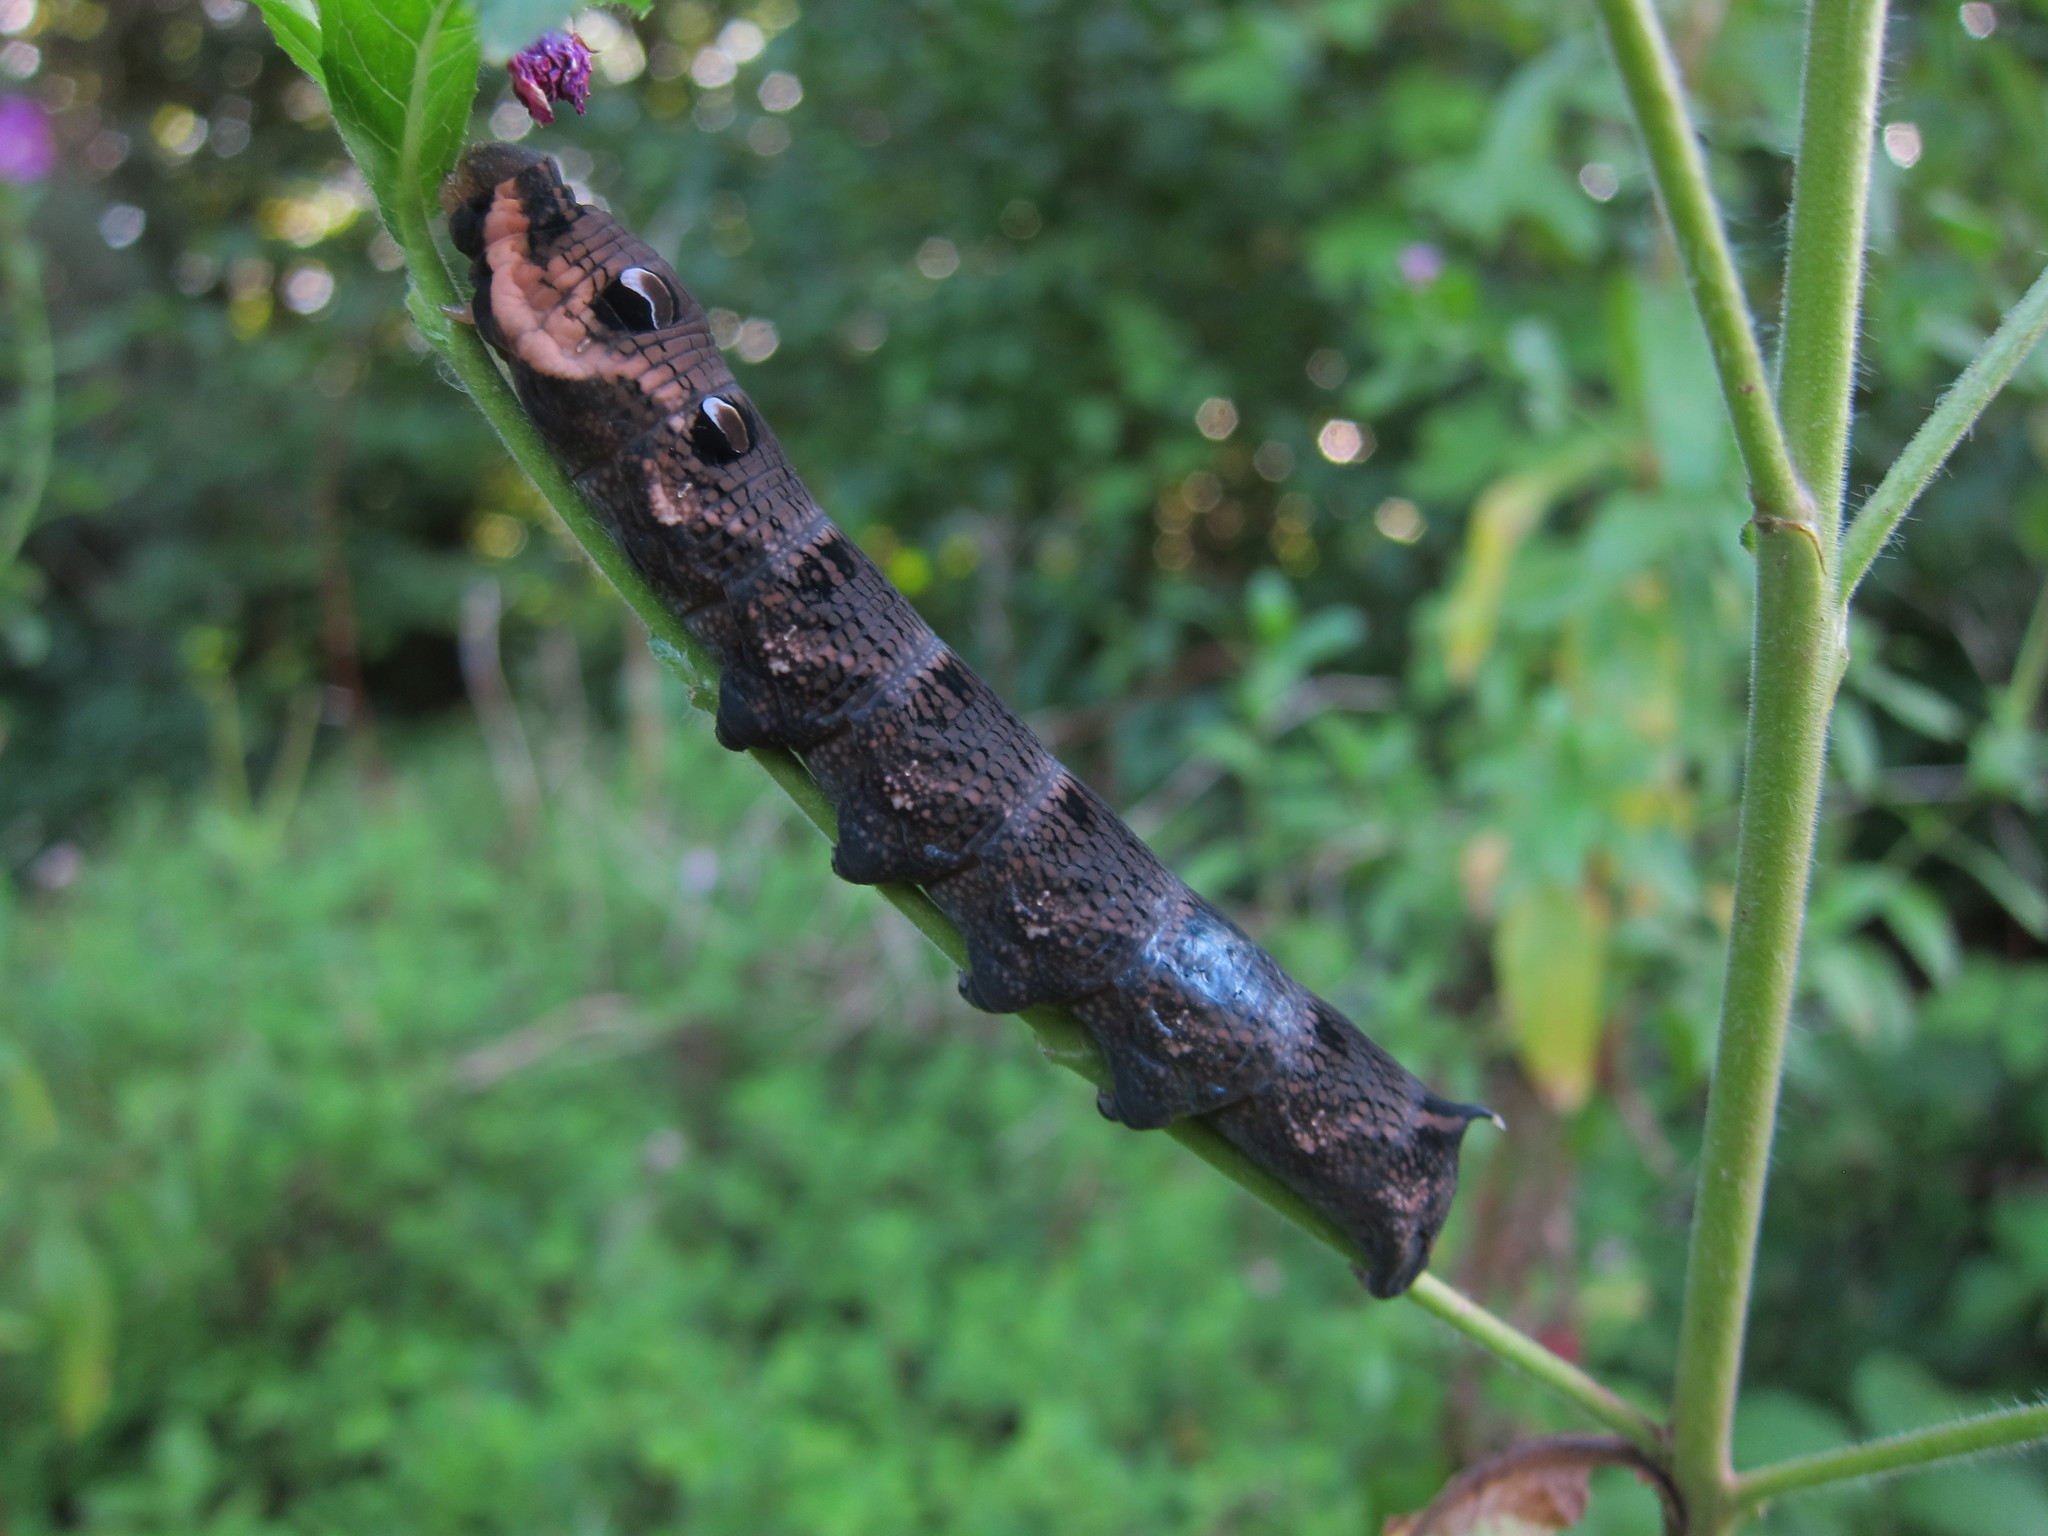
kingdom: Animalia
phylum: Arthropoda
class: Insecta
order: Lepidoptera
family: Sphingidae
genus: Deilephila
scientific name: Deilephila elpenor
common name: Elephant hawk-moth
